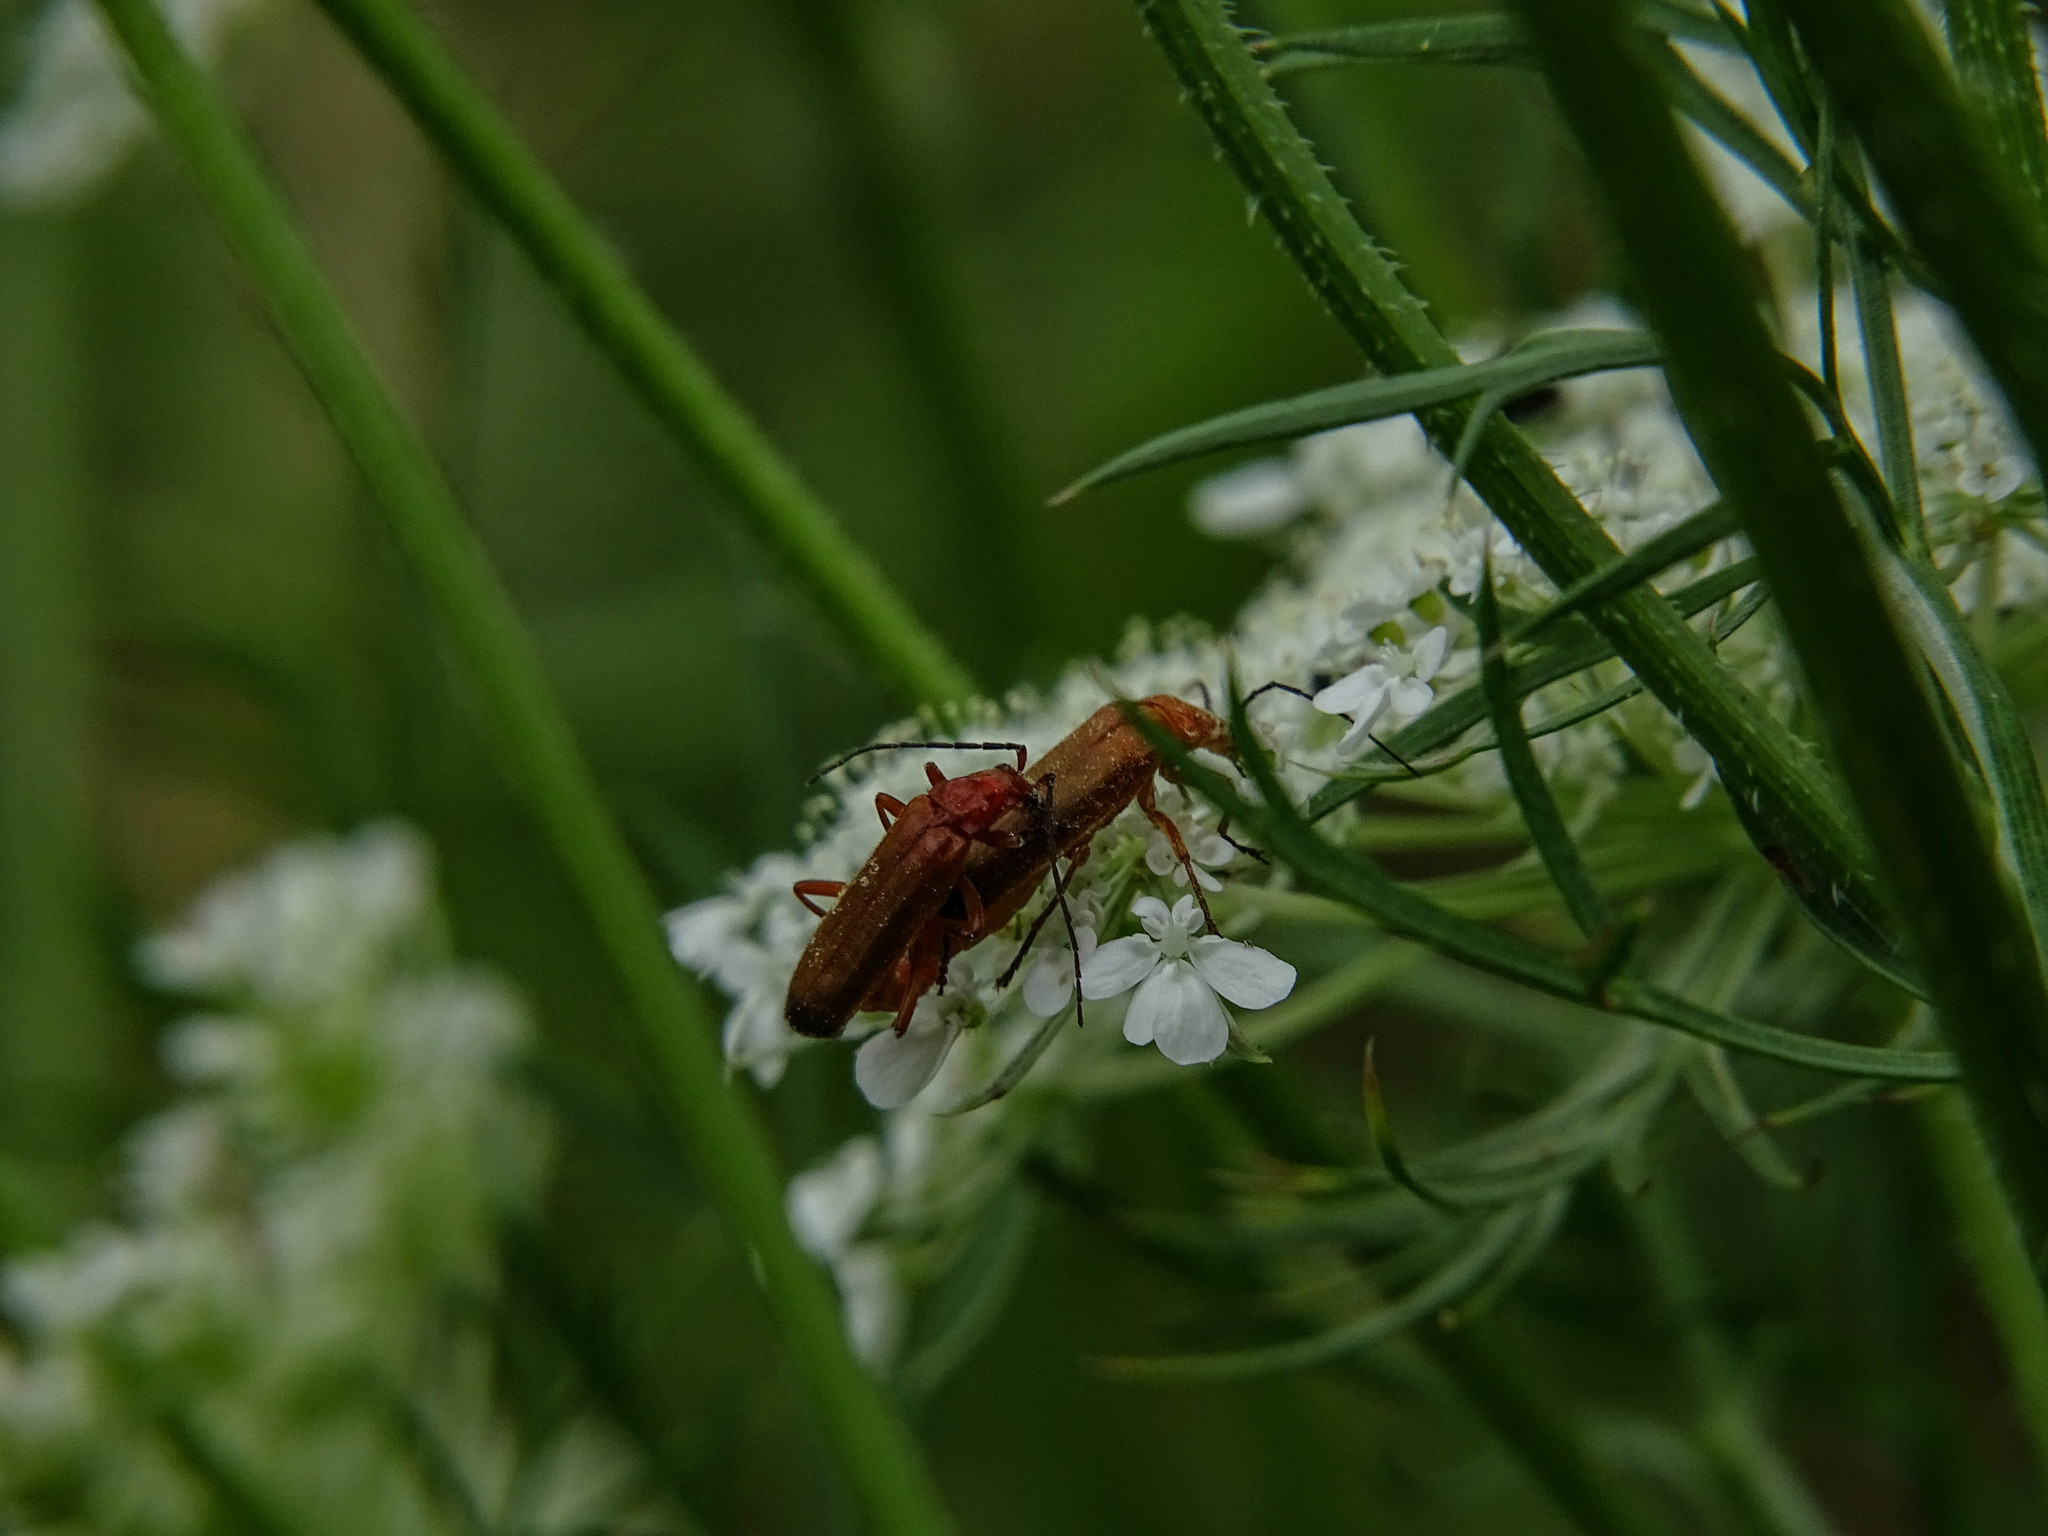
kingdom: Animalia
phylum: Arthropoda
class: Insecta
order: Coleoptera
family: Cantharidae
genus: Rhagonycha
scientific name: Rhagonycha fulva
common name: Common red soldier beetle
